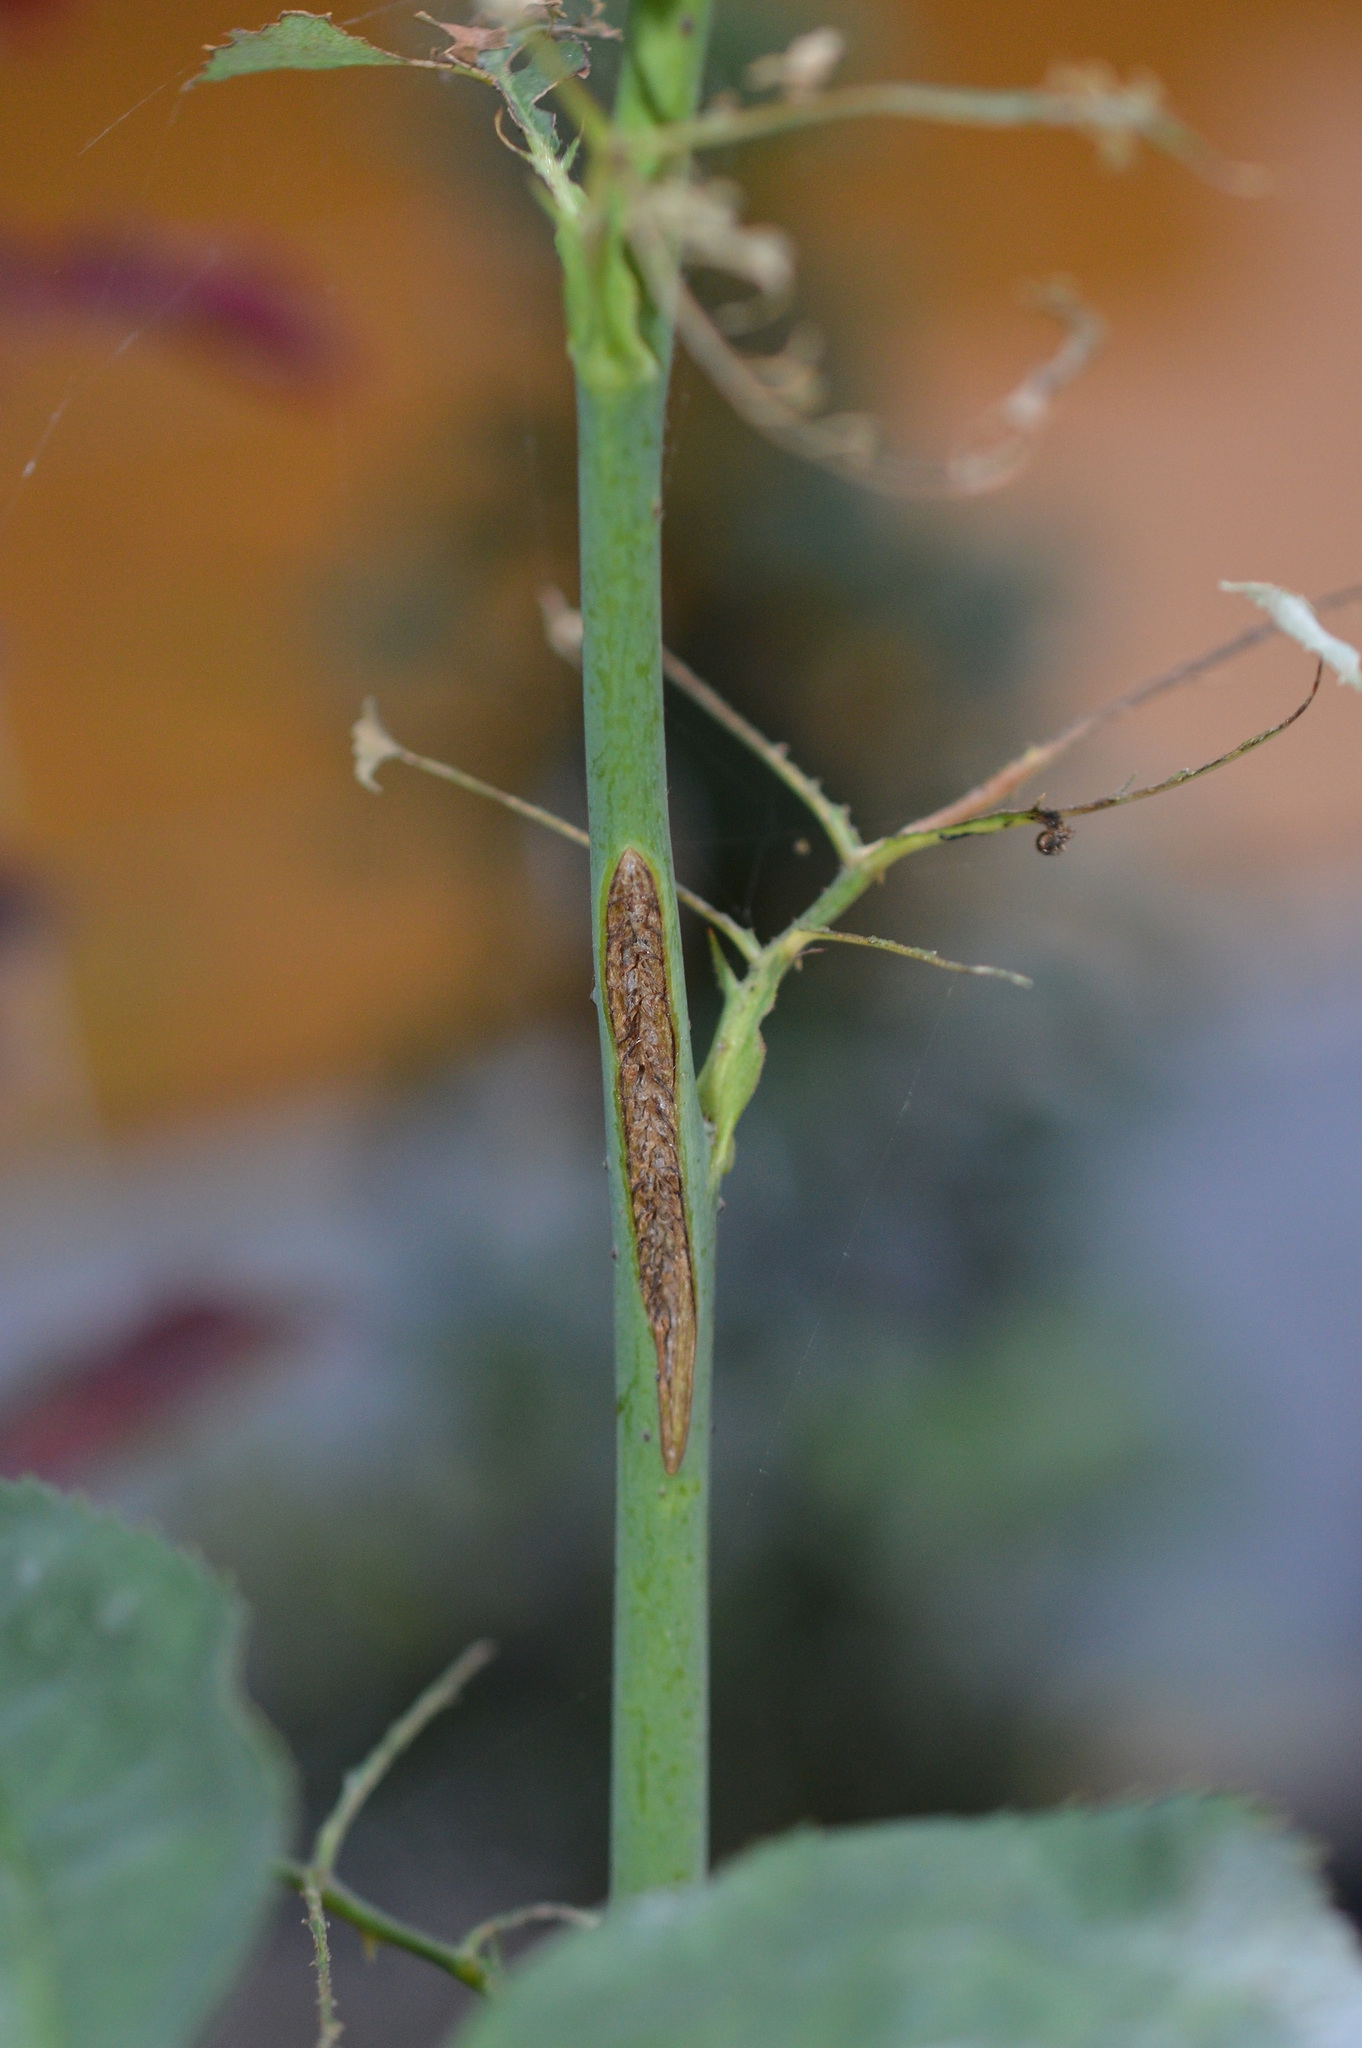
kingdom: Animalia
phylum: Arthropoda
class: Insecta
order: Hymenoptera
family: Argidae
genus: Arge
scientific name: Arge pagana
